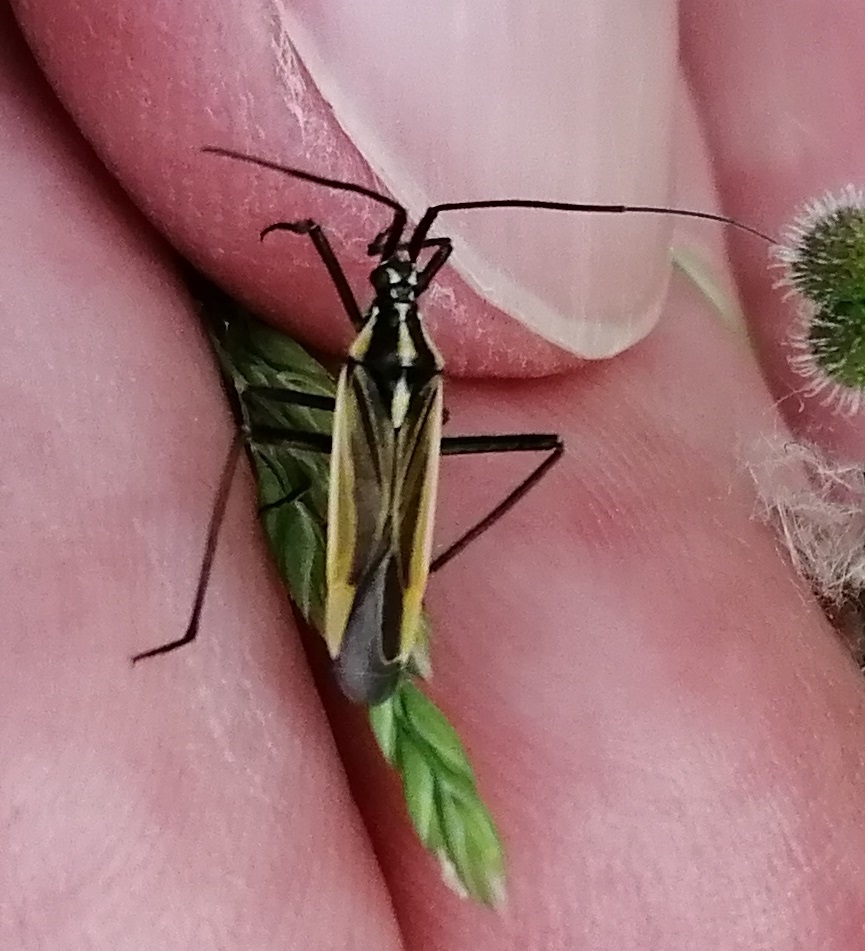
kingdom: Animalia
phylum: Arthropoda
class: Insecta
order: Hemiptera
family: Miridae
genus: Leptopterna
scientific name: Leptopterna dolabrata
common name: Meadow plant bug
